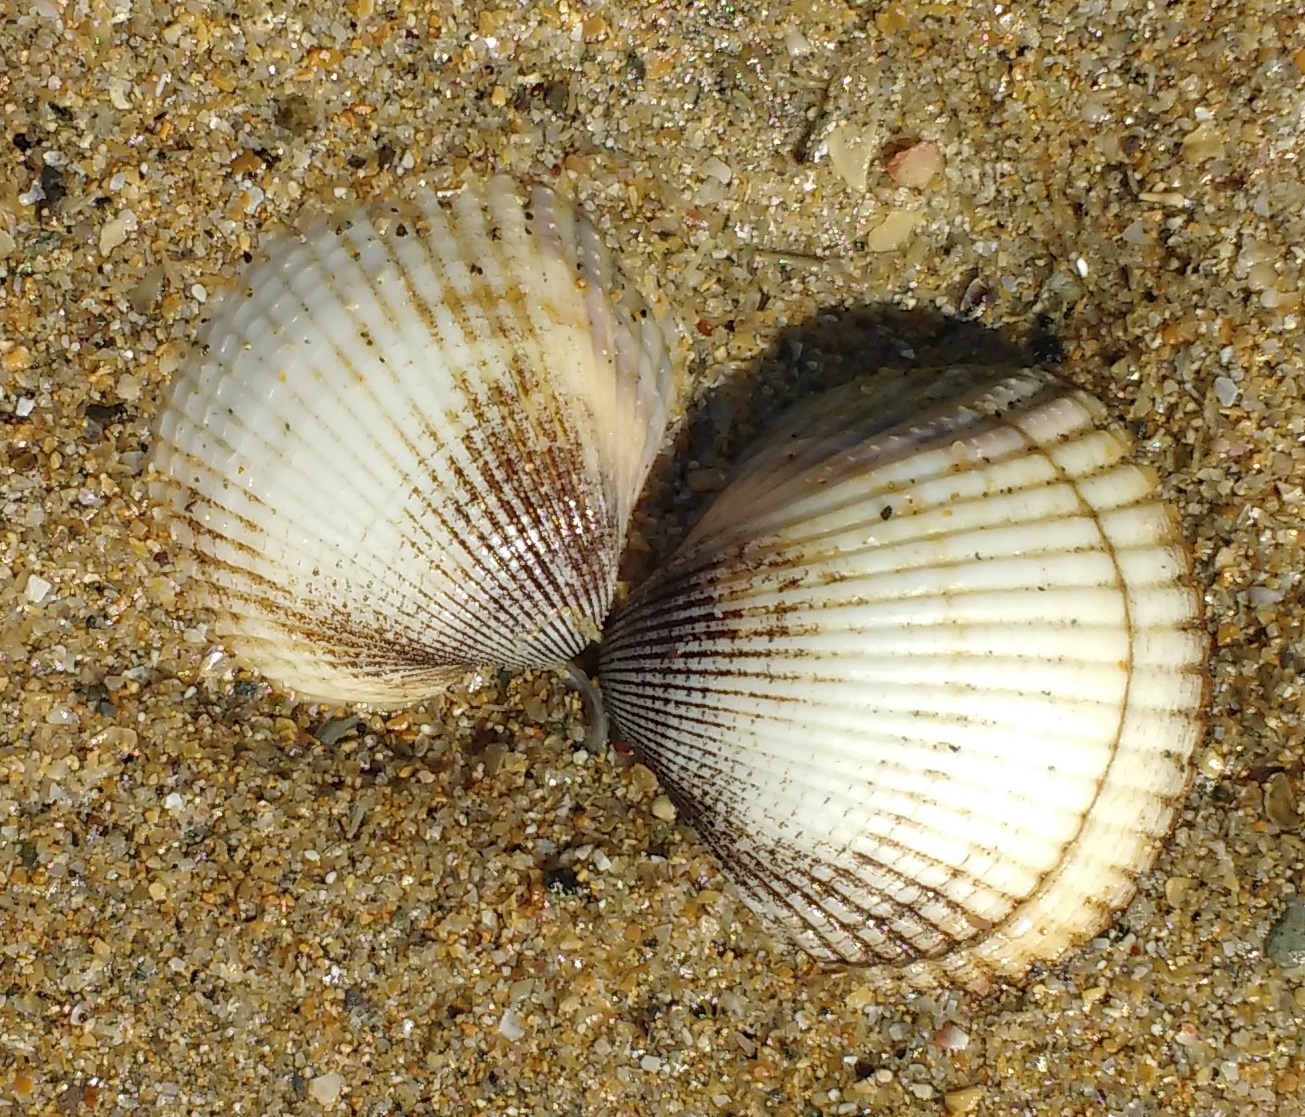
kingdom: Animalia
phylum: Mollusca
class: Bivalvia
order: Cardiida
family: Cardiidae
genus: Cerastoderma
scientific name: Cerastoderma edule
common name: Common cockle
